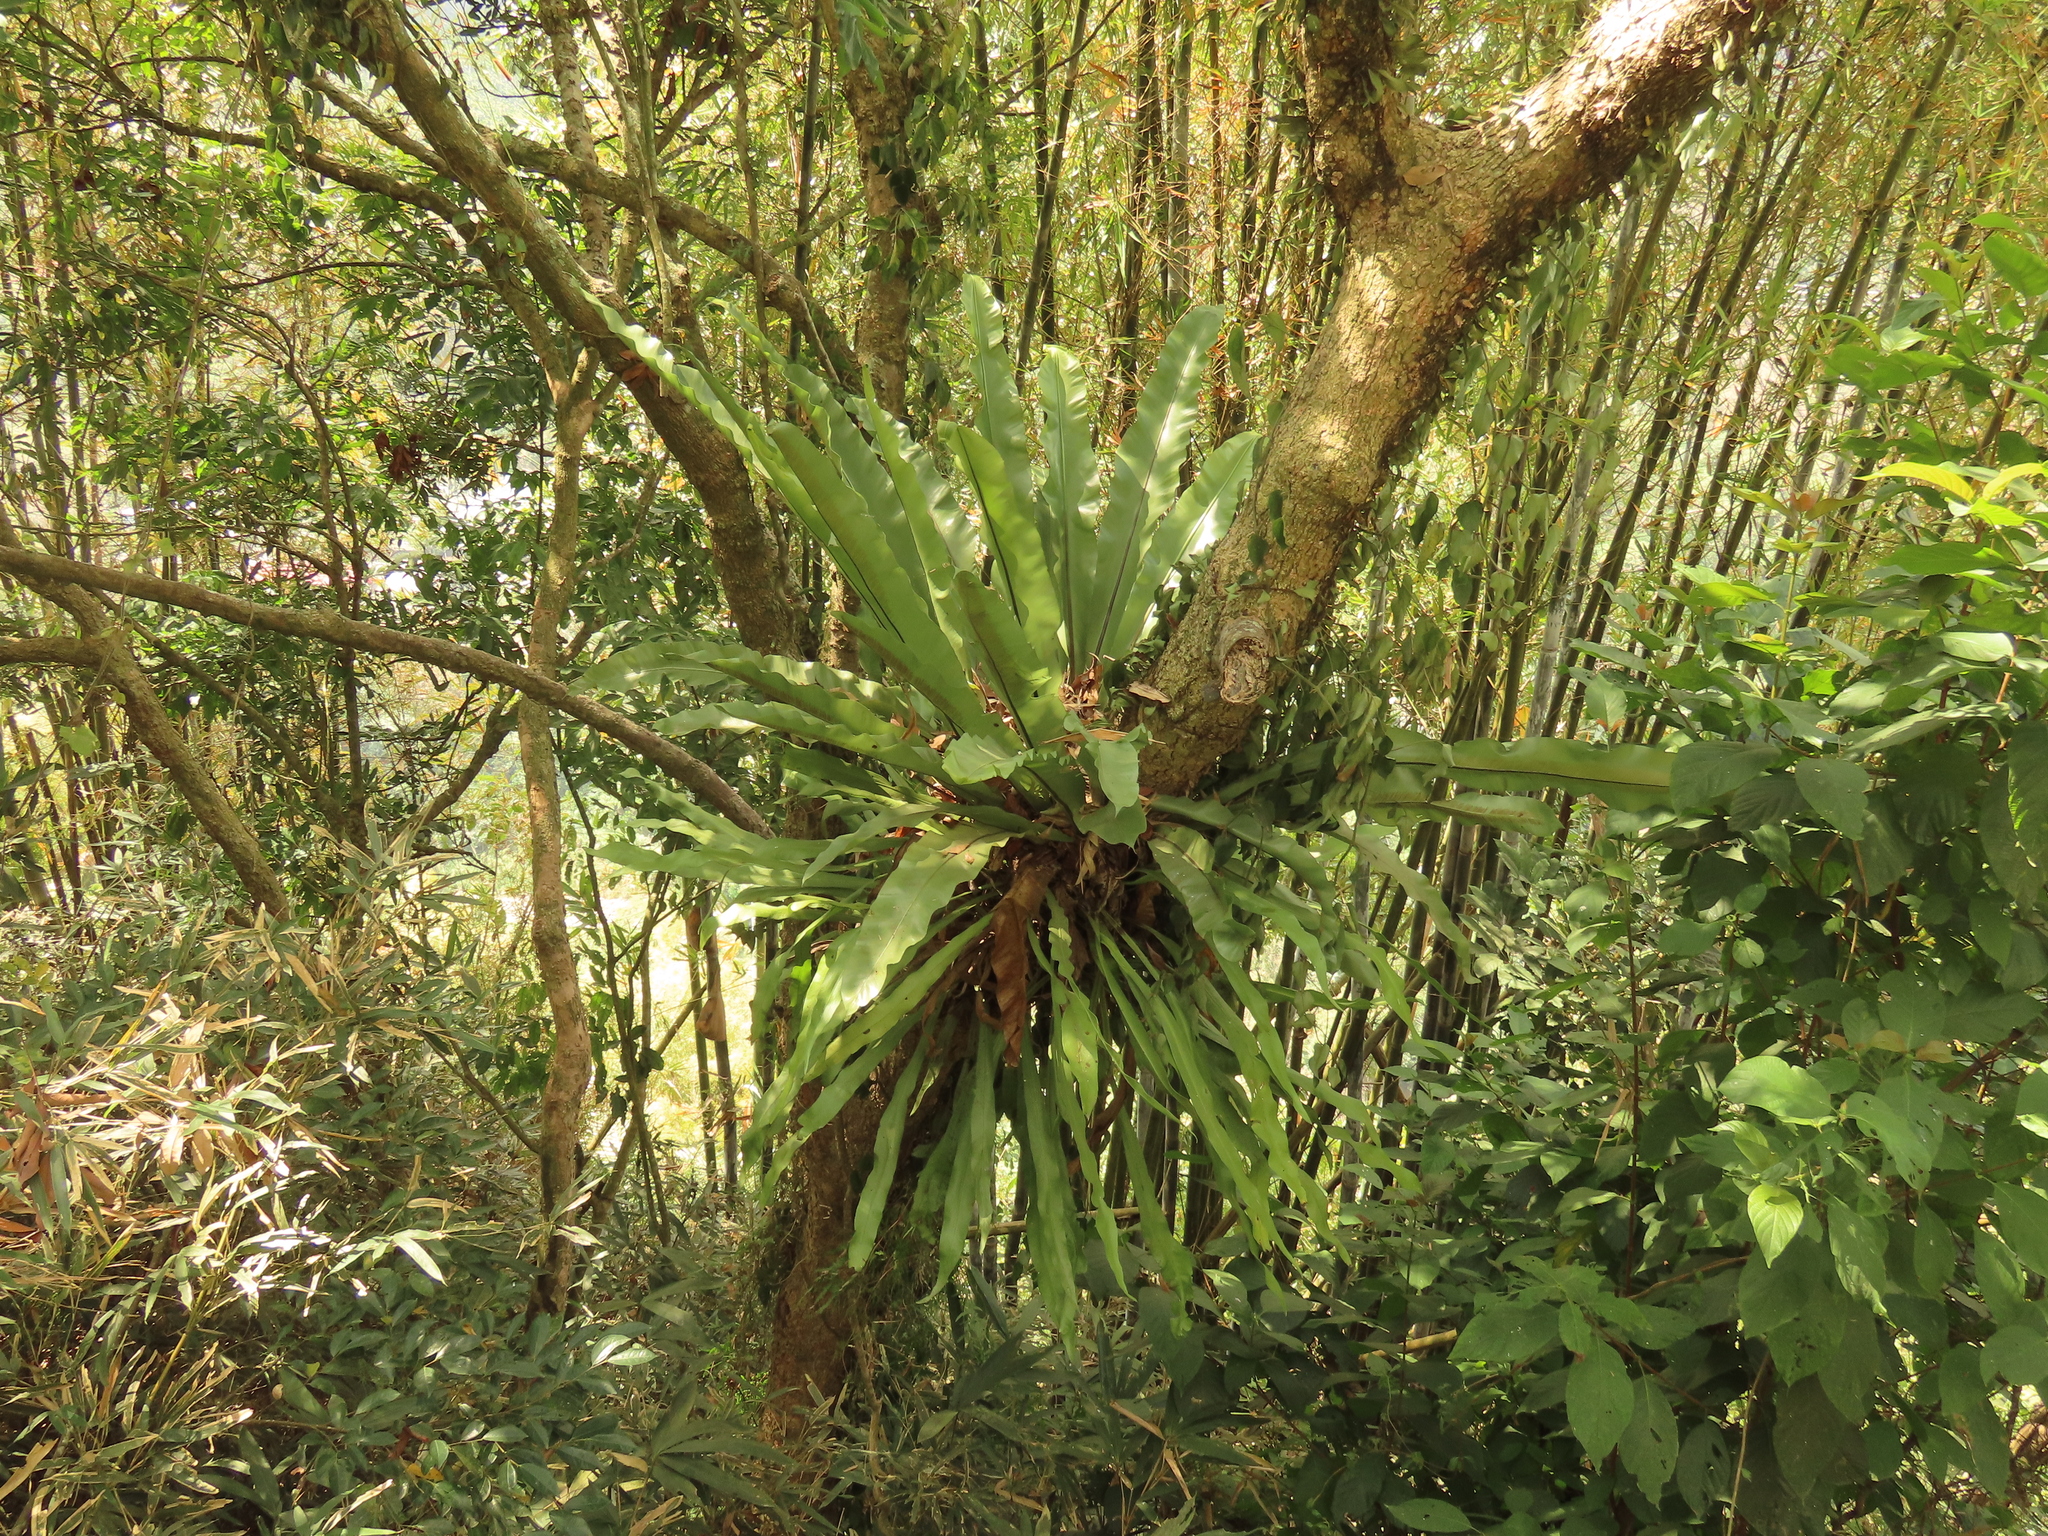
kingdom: Plantae
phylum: Tracheophyta
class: Polypodiopsida
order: Polypodiales
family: Aspleniaceae
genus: Asplenium
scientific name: Asplenium nidus
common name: Bird's-nest fern
